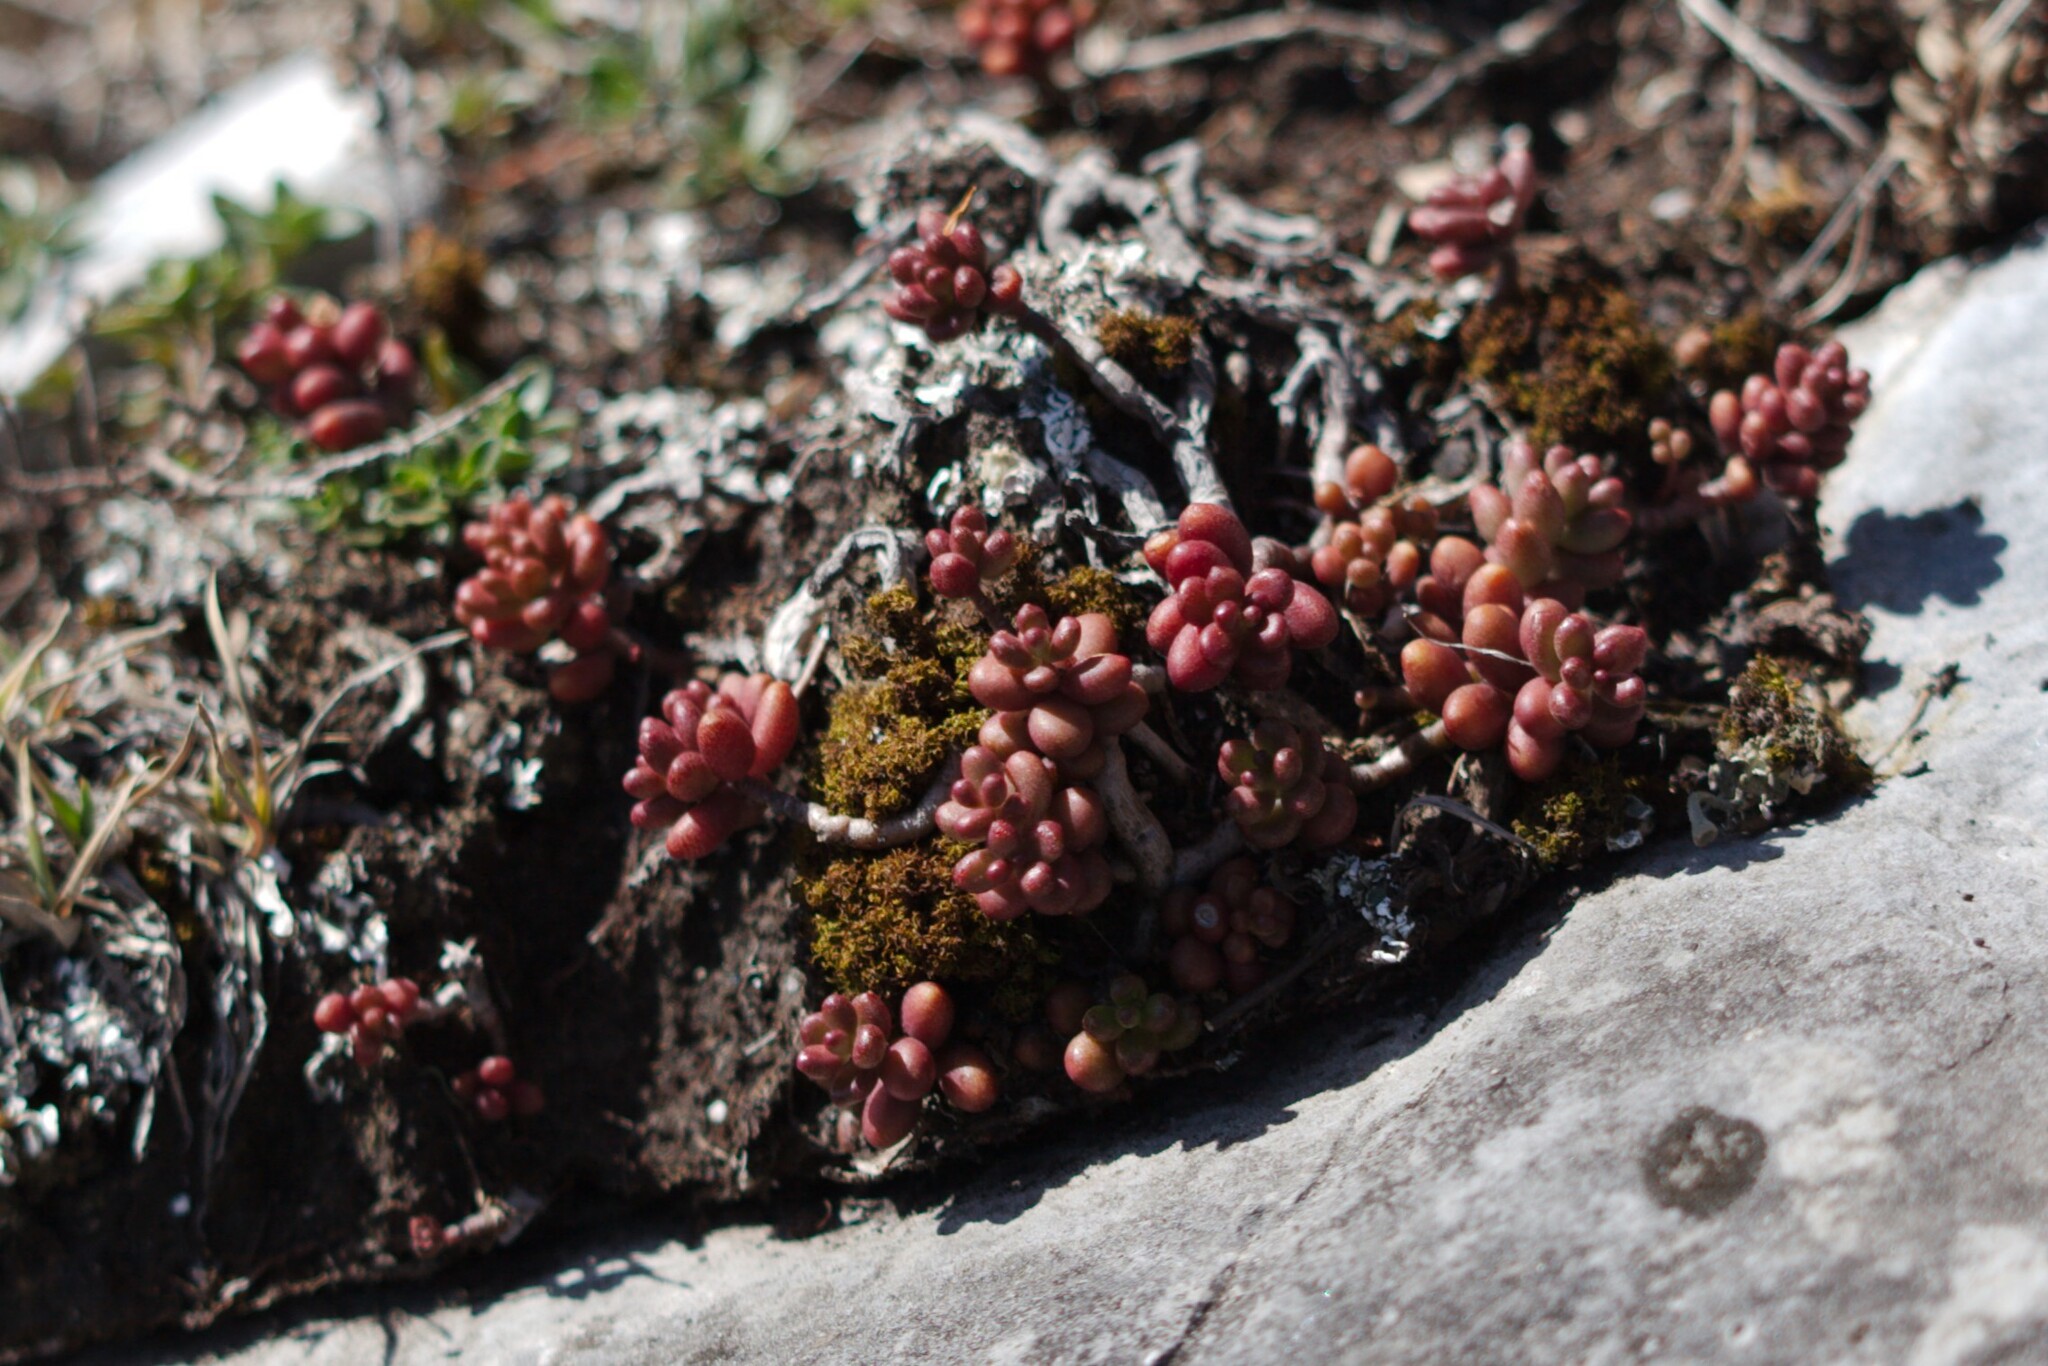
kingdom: Plantae
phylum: Tracheophyta
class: Magnoliopsida
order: Saxifragales
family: Crassulaceae
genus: Sedum
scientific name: Sedum album
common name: White stonecrop
